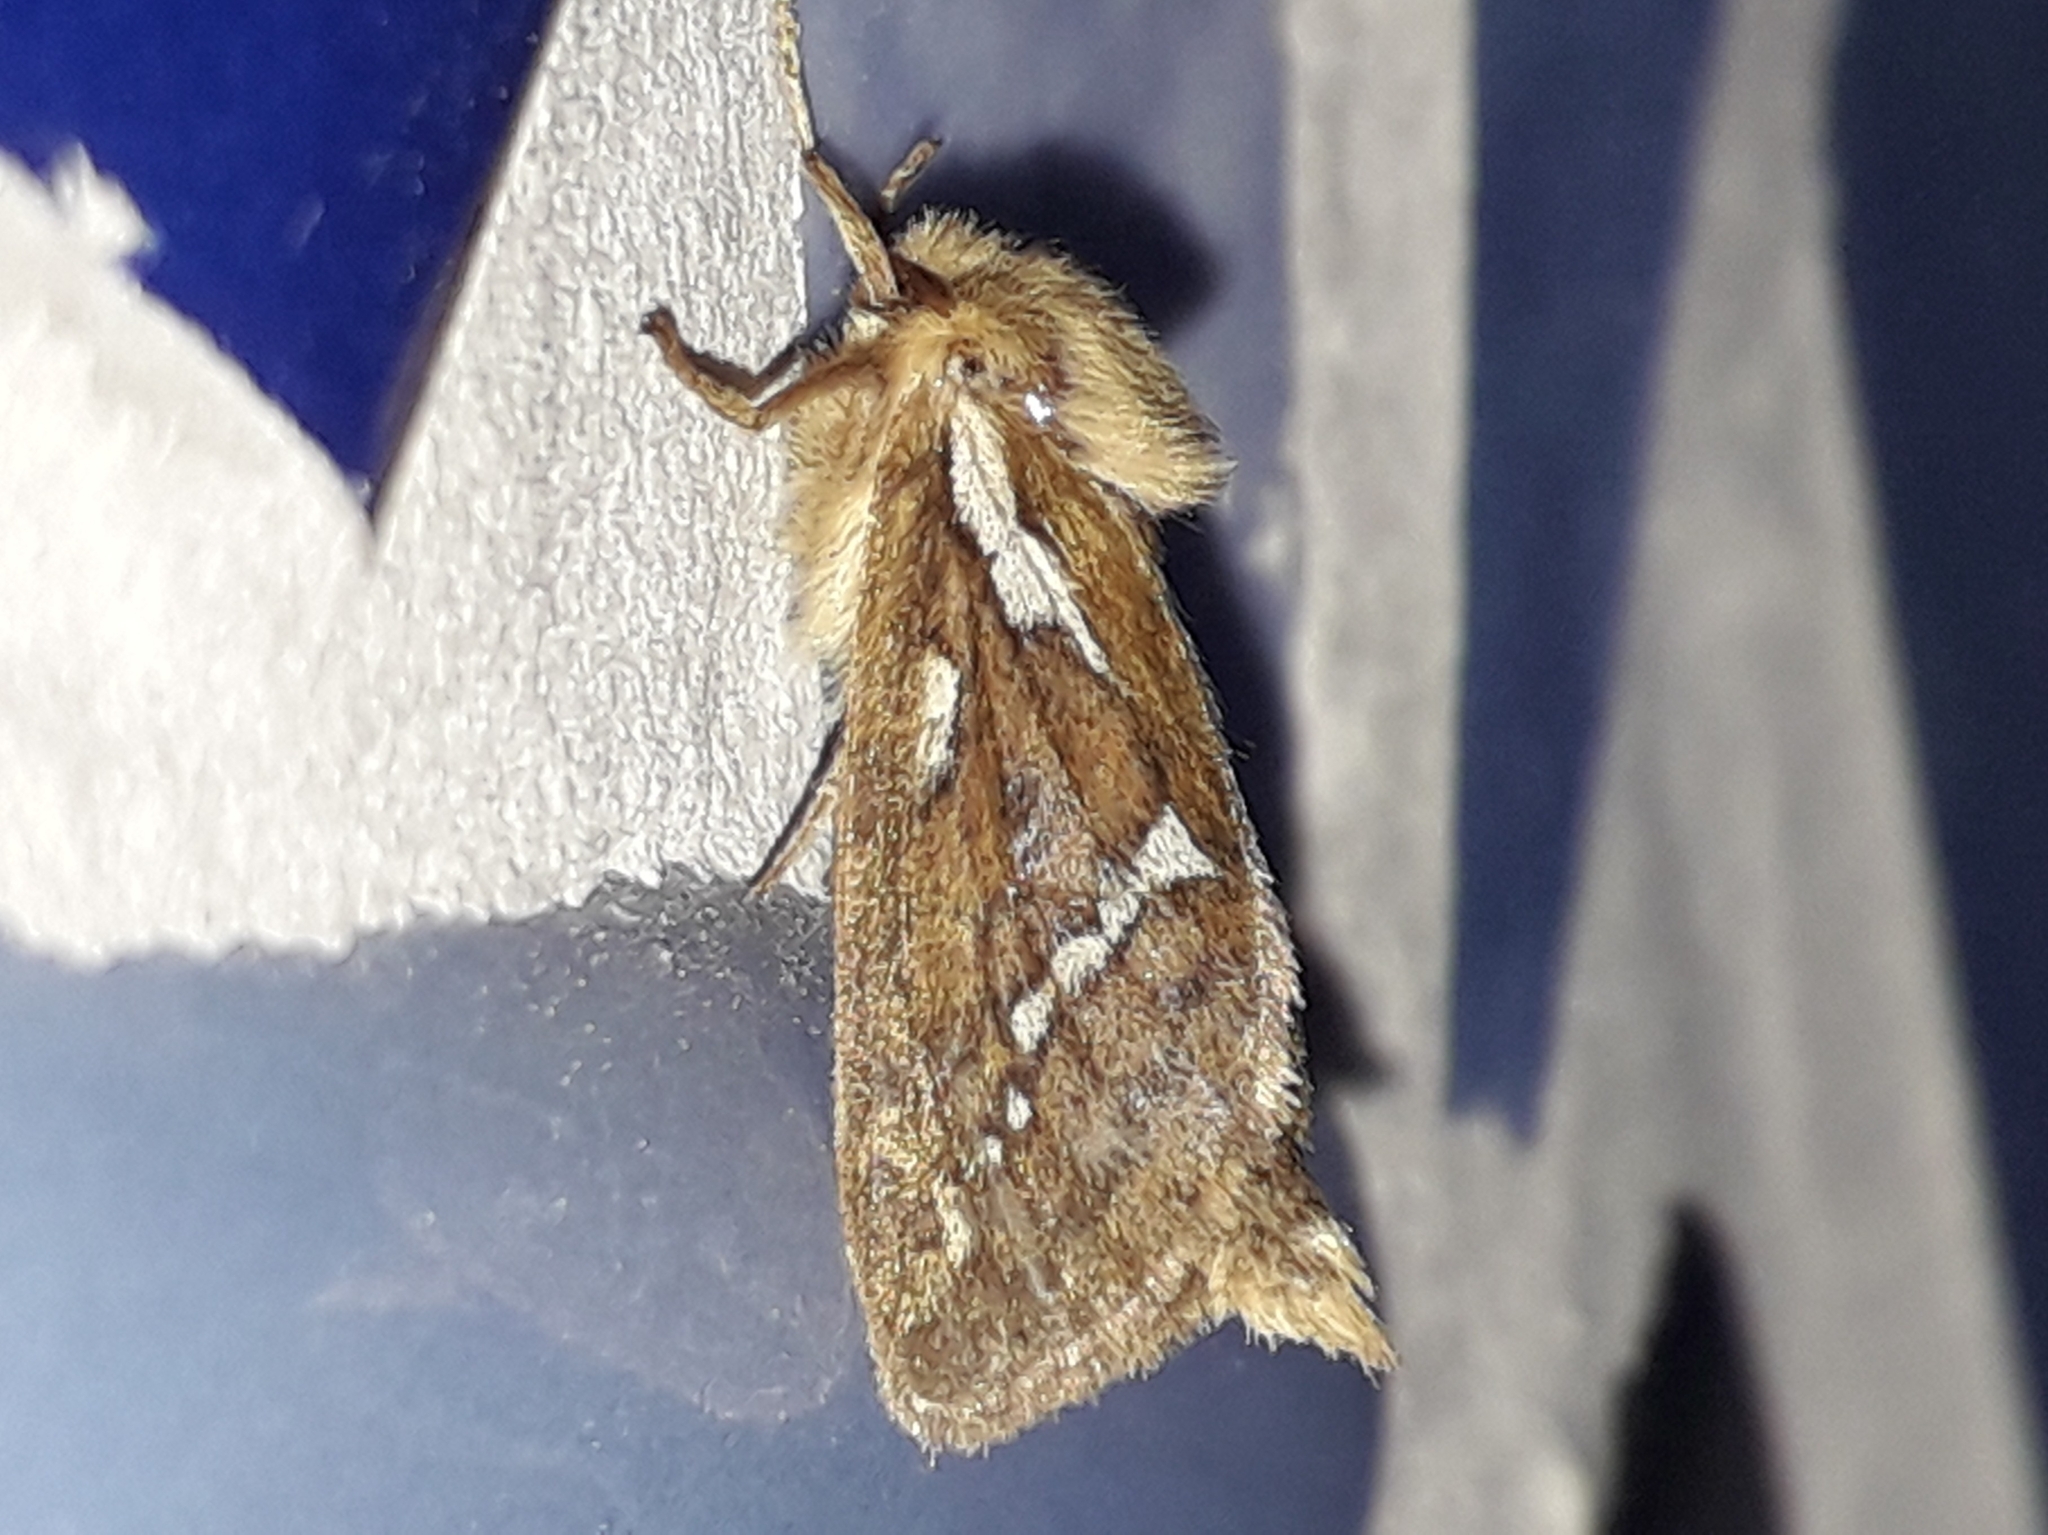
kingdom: Animalia
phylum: Arthropoda
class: Insecta
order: Lepidoptera
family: Hepialidae
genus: Korscheltellus
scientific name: Korscheltellus lupulina
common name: Common swift
